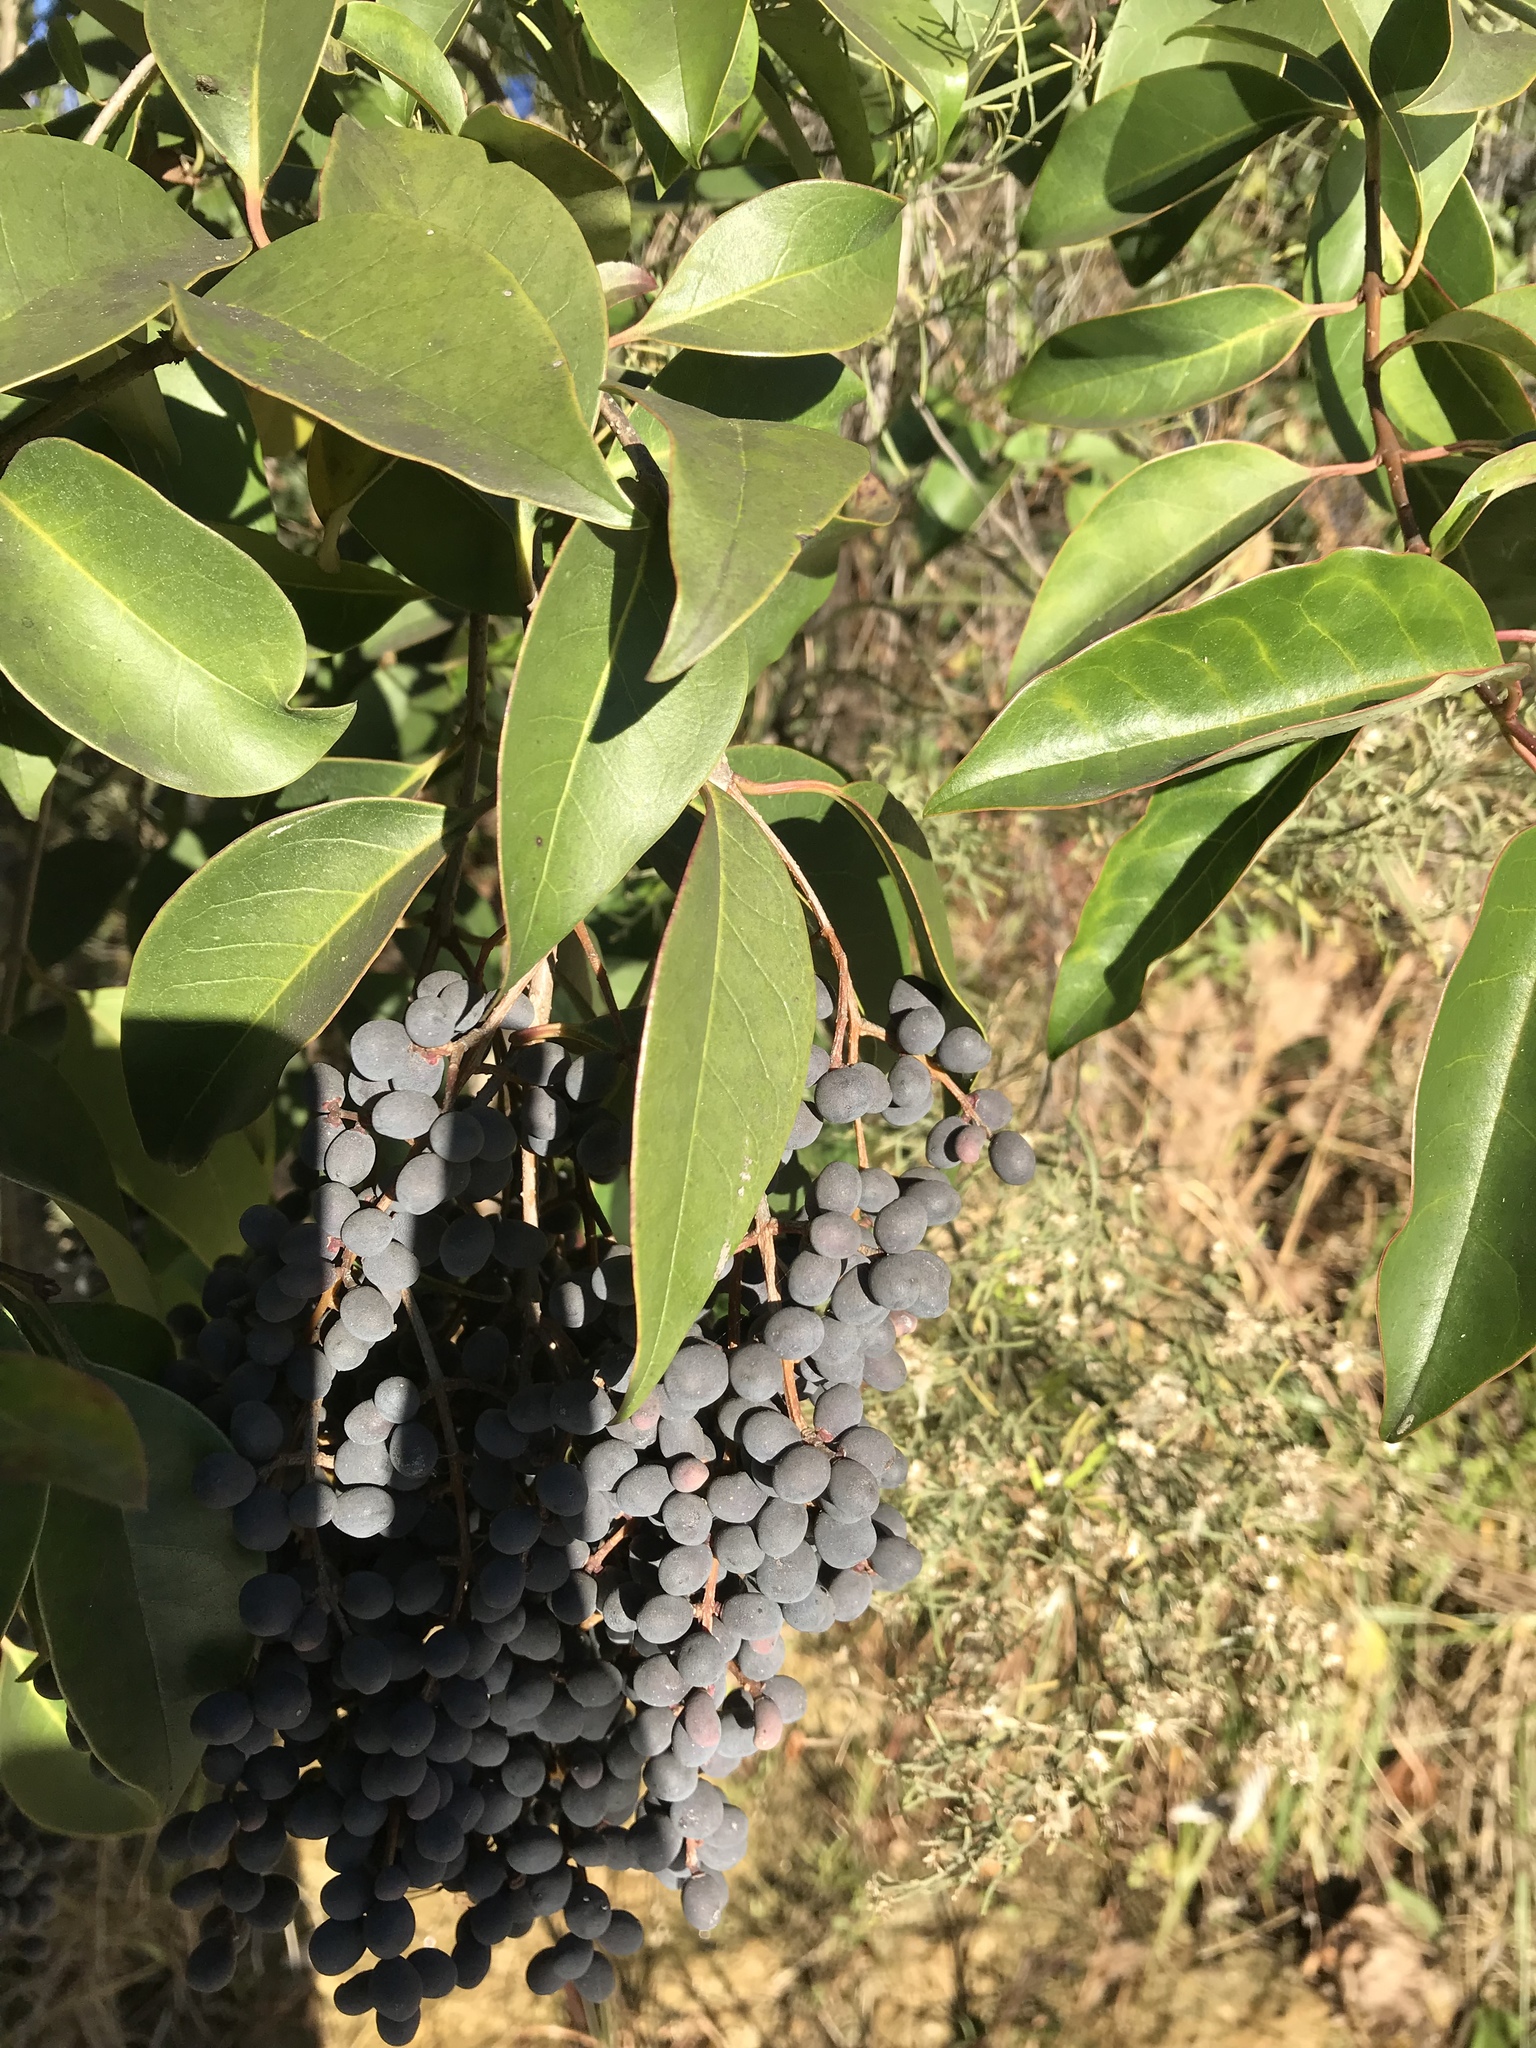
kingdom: Plantae
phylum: Tracheophyta
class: Magnoliopsida
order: Lamiales
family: Oleaceae
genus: Ligustrum
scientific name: Ligustrum lucidum
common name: Glossy privet
